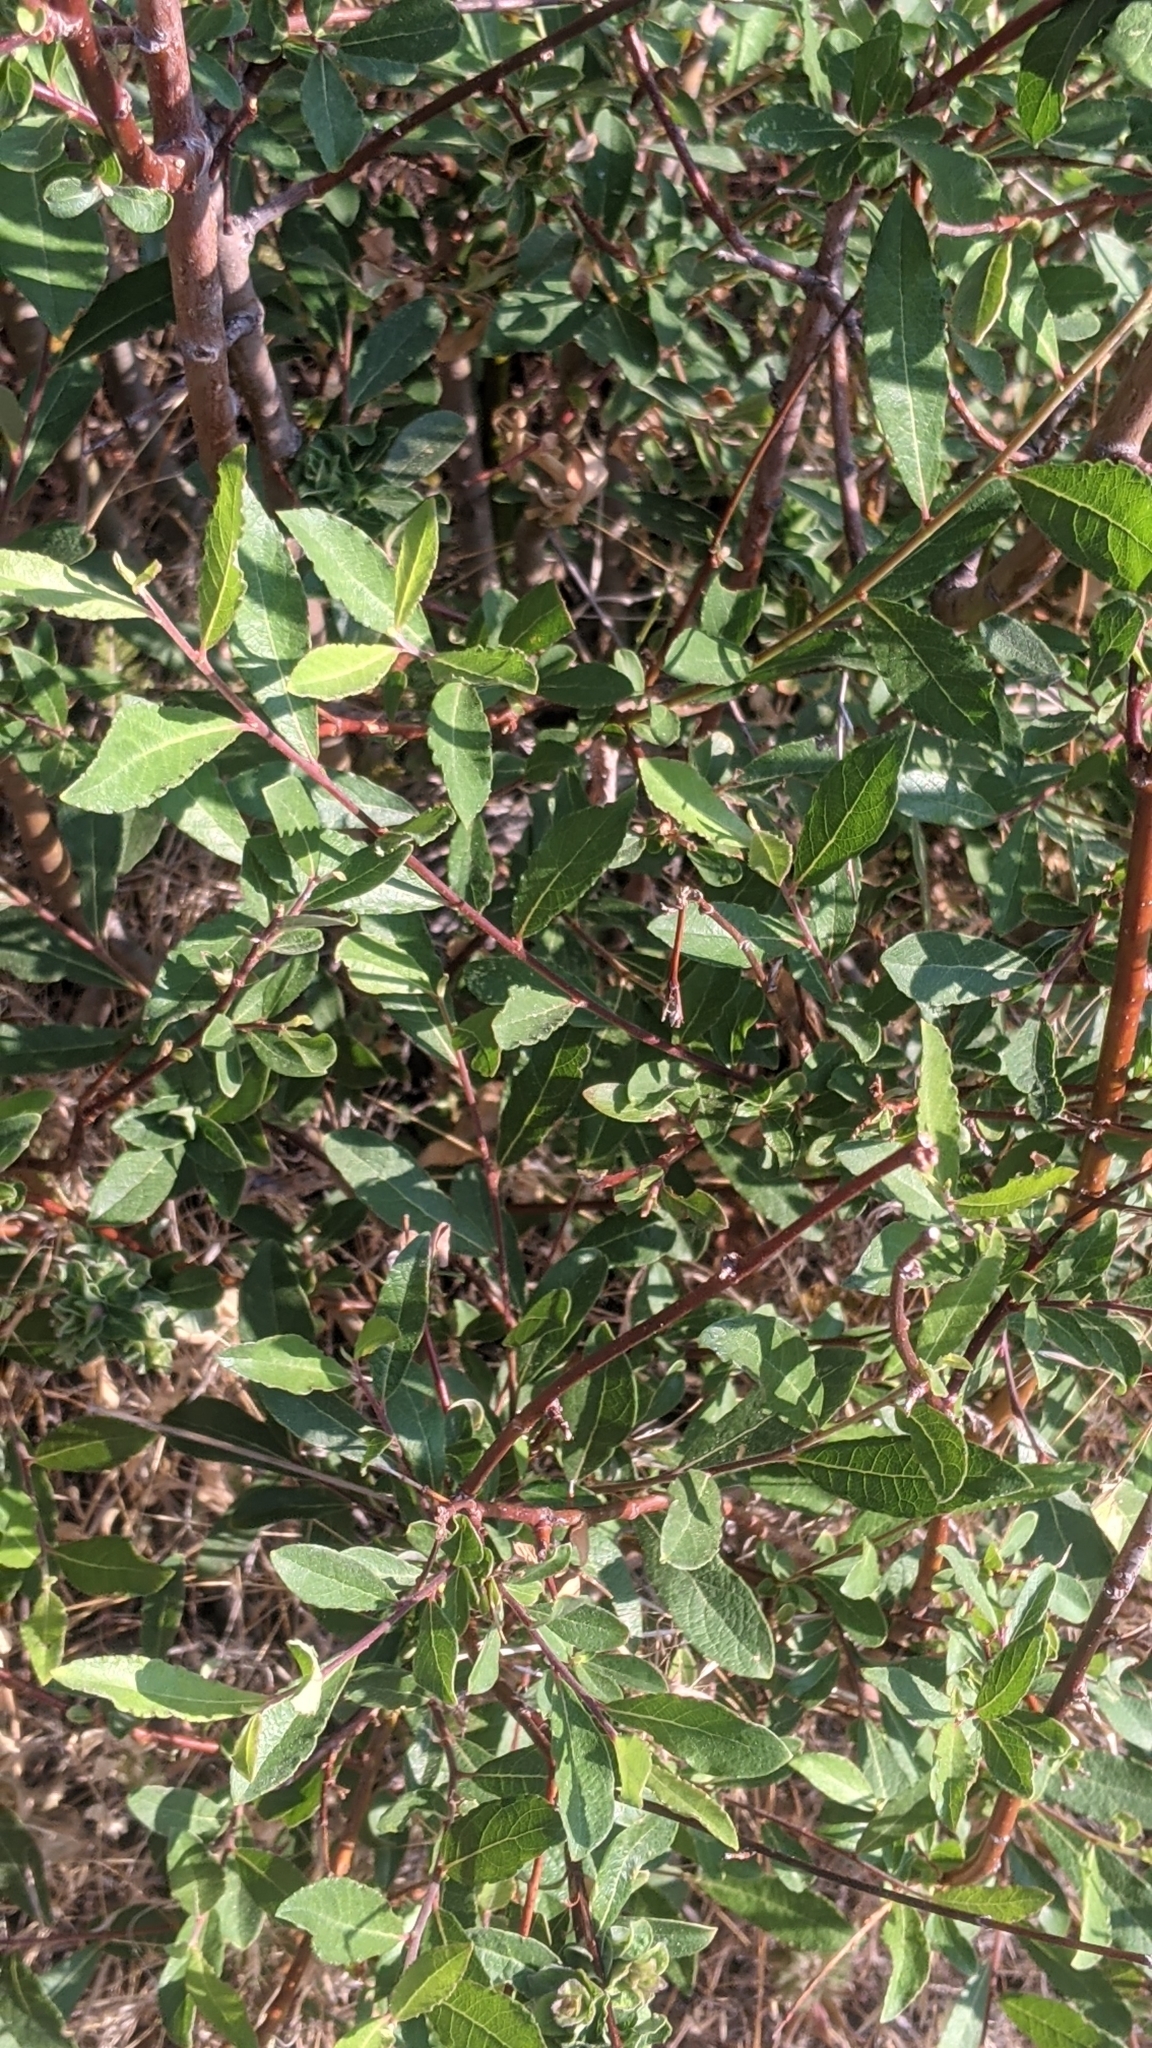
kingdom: Animalia
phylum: Arthropoda
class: Insecta
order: Diptera
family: Cecidomyiidae
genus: Rabdophaga
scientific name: Rabdophaga salicisbrassicoides
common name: Willow cabbagegall midge
